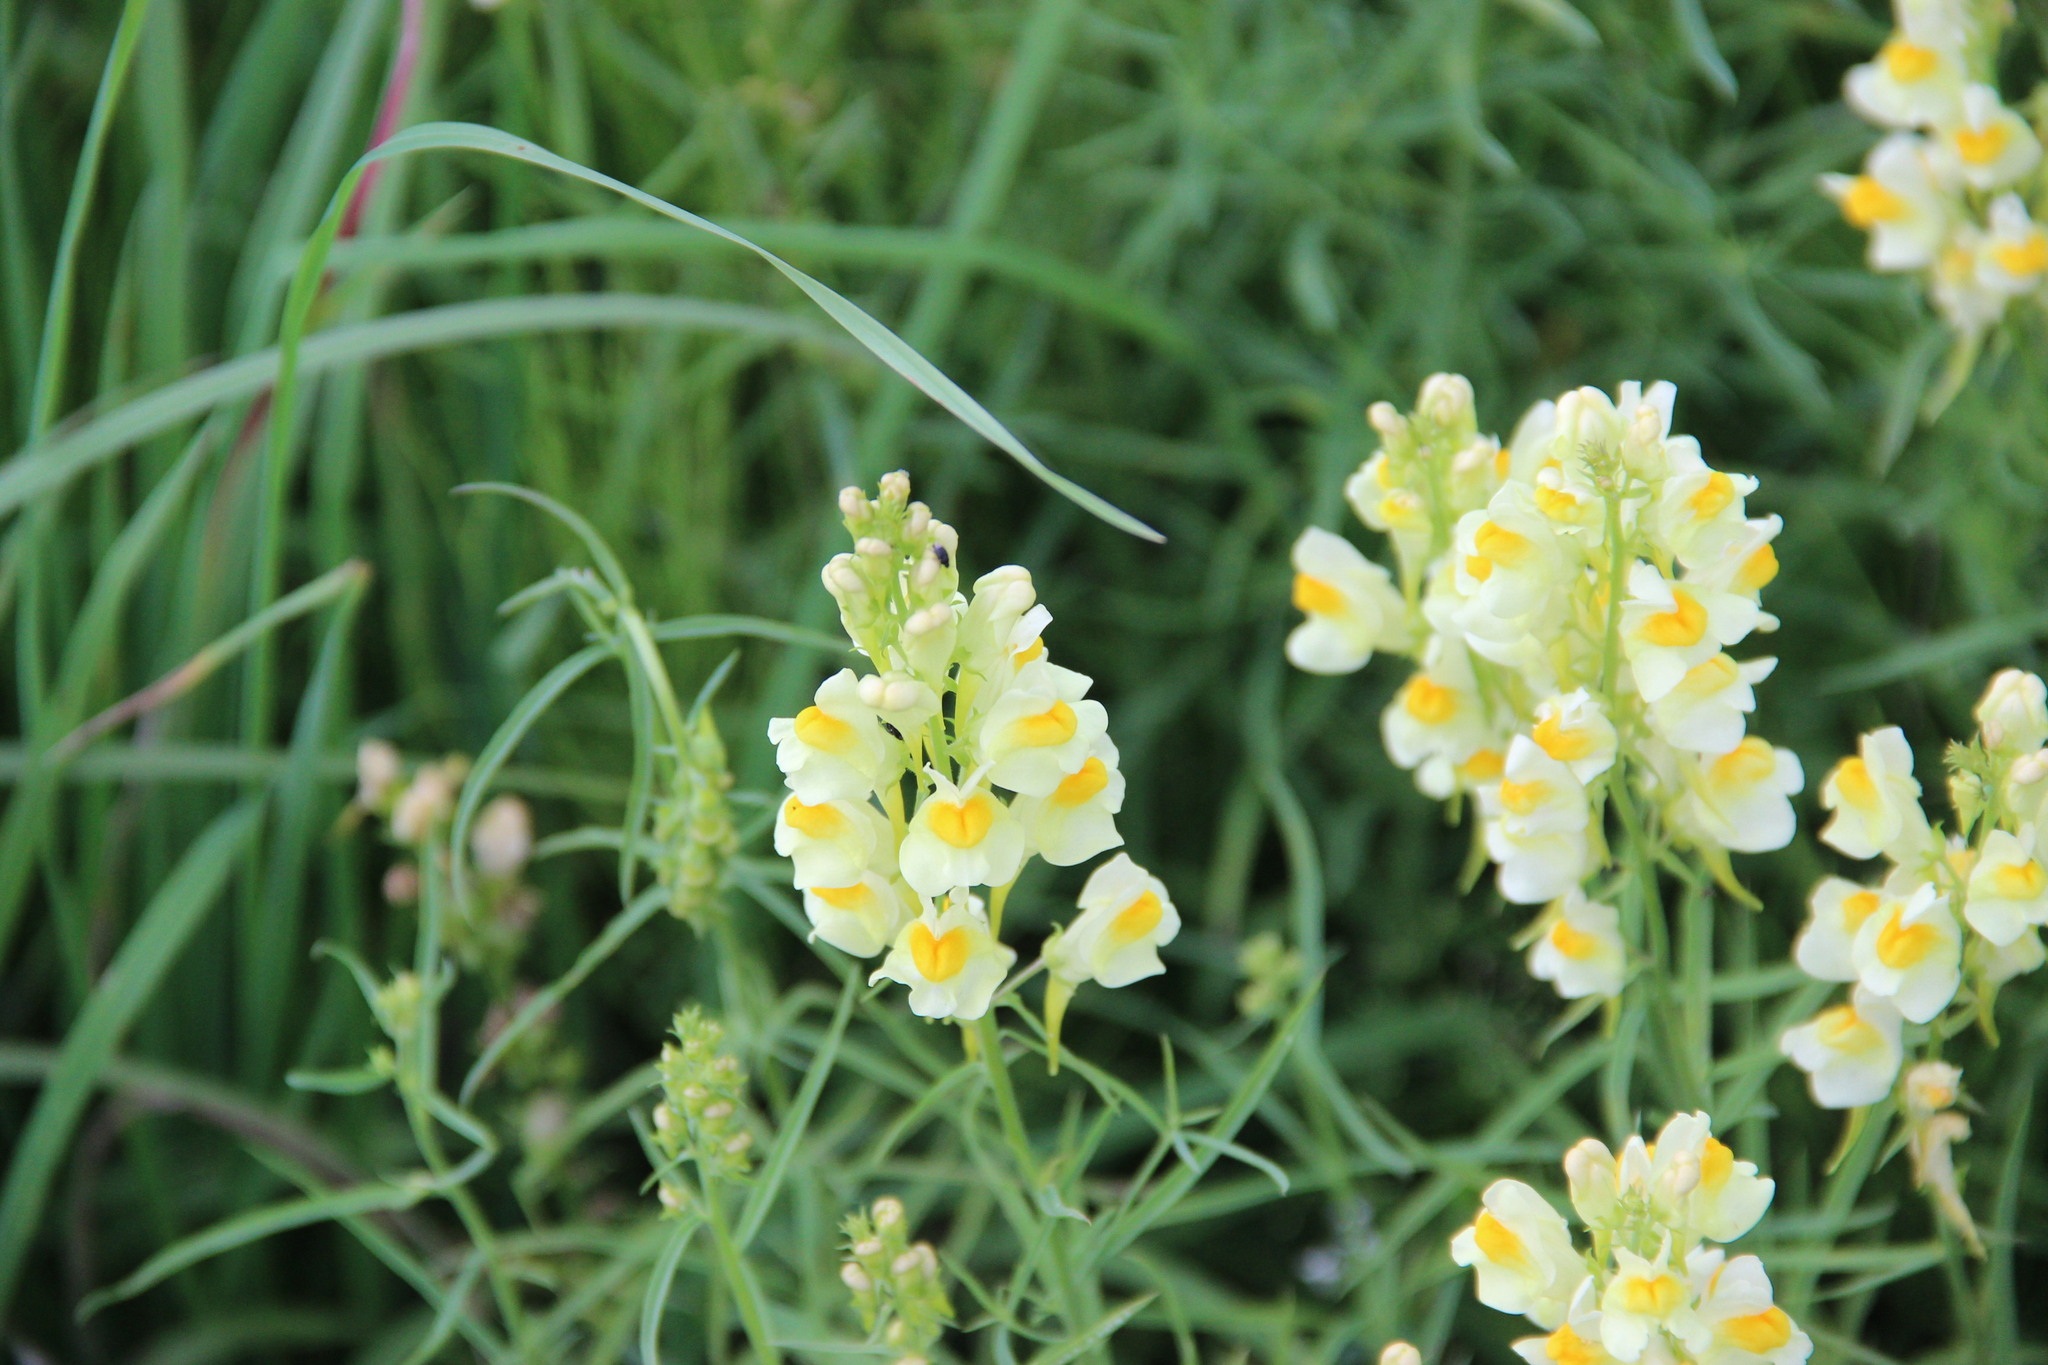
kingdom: Plantae
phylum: Tracheophyta
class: Magnoliopsida
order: Lamiales
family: Plantaginaceae
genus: Linaria
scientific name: Linaria vulgaris
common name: Butter and eggs
